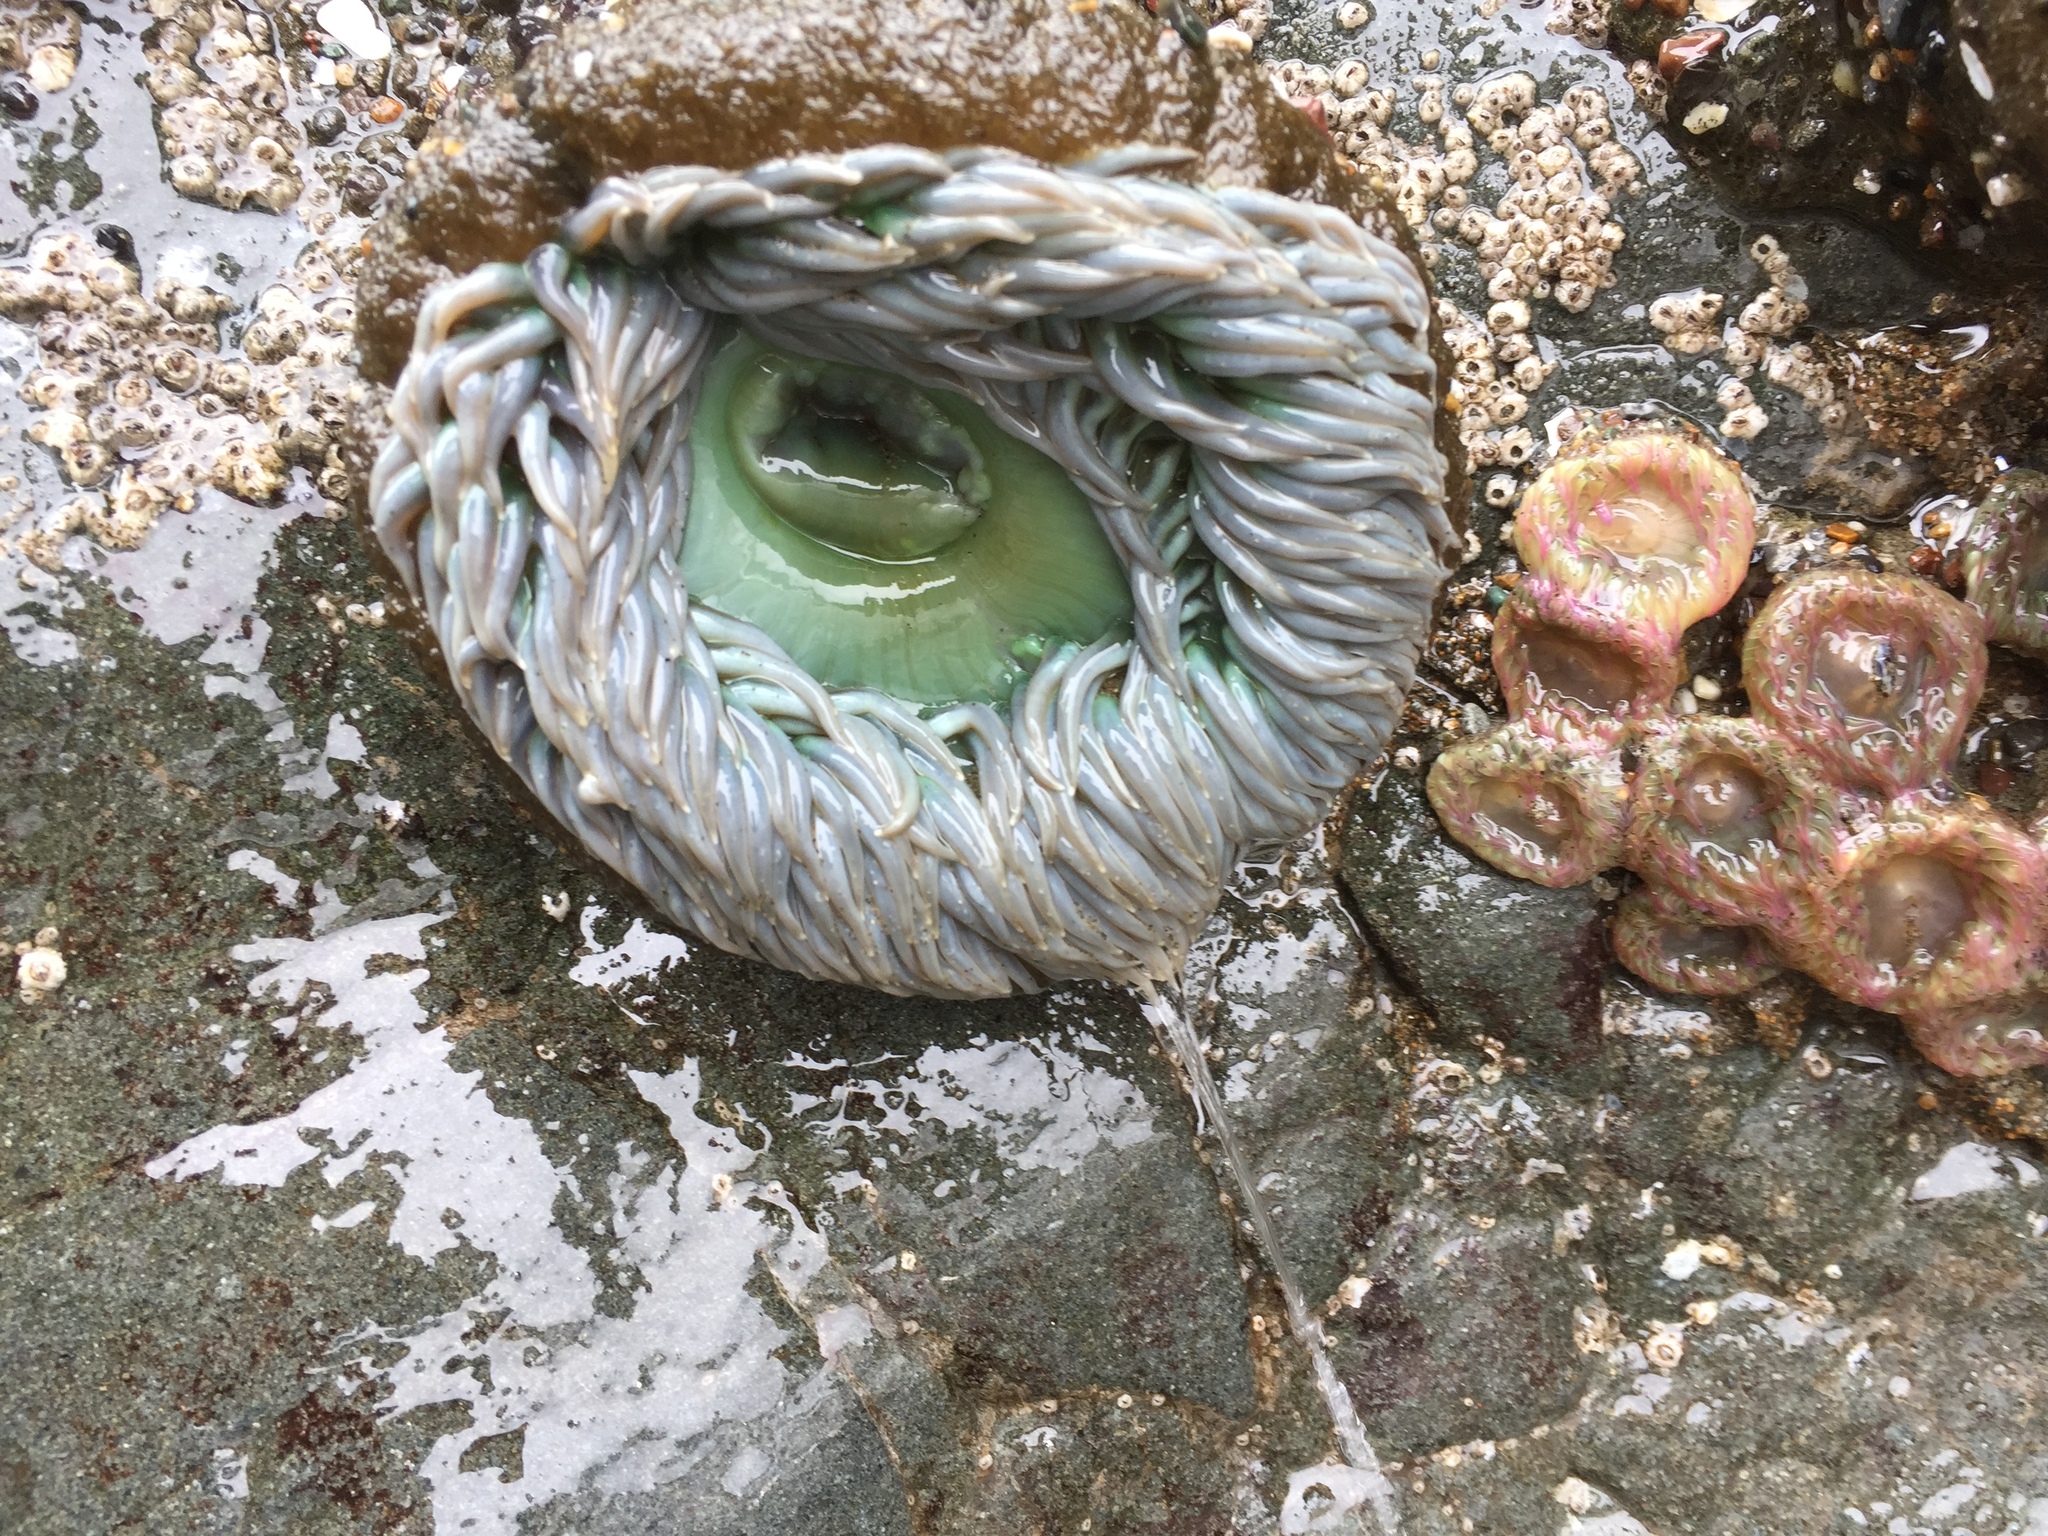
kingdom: Animalia
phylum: Cnidaria
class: Anthozoa
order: Actiniaria
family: Actiniidae
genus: Anthopleura
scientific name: Anthopleura xanthogrammica
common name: Giant green anemone
